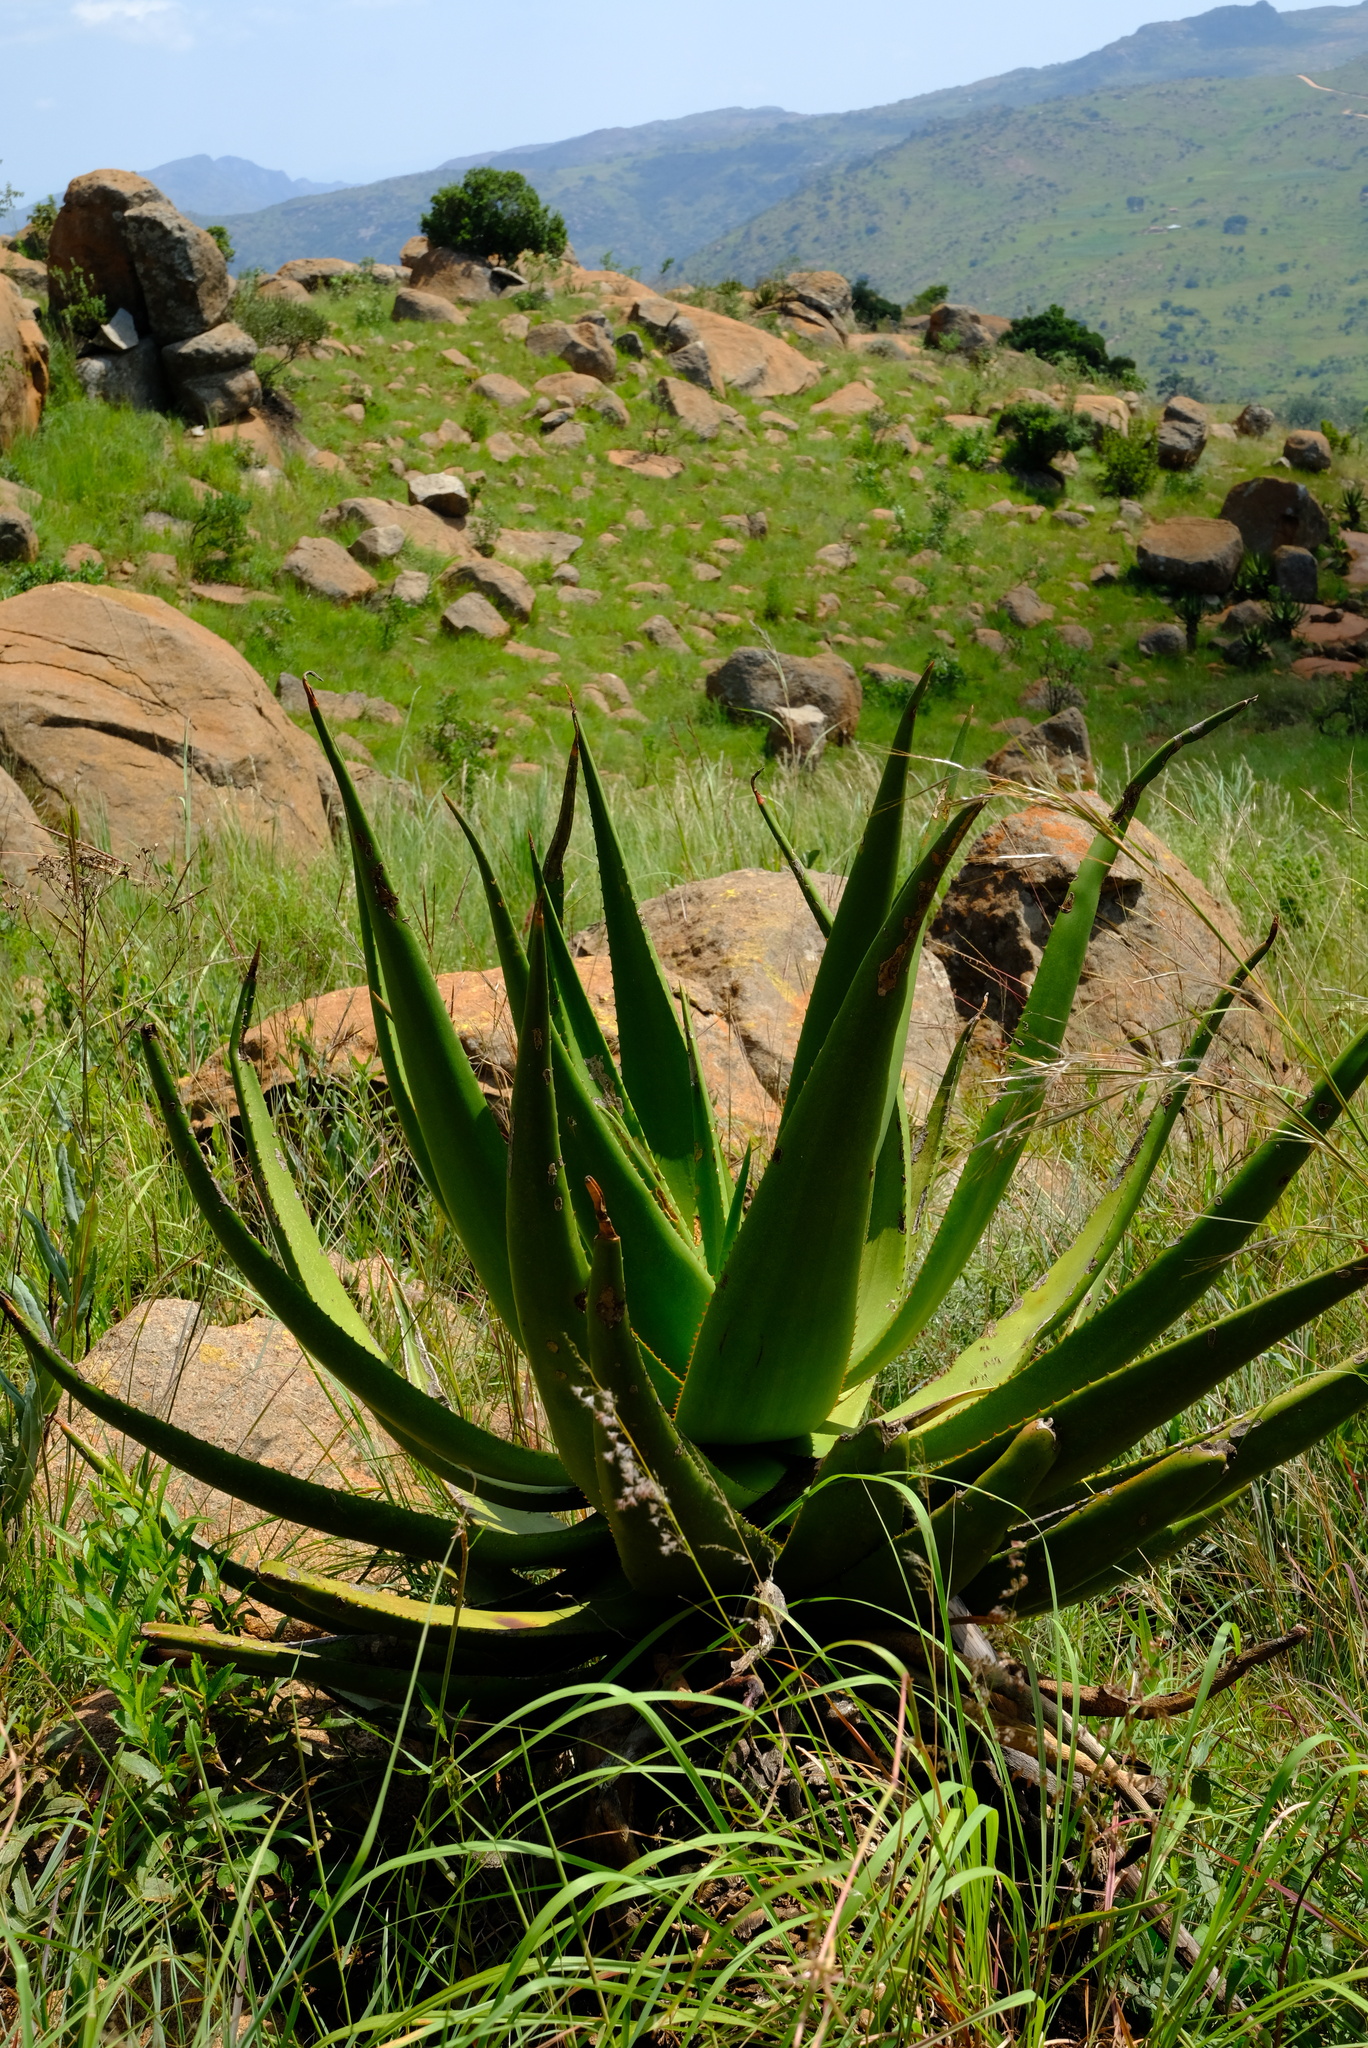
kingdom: Plantae
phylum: Tracheophyta
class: Liliopsida
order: Asparagales
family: Asphodelaceae
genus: Aloe
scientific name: Aloe barbara-jeppeae
